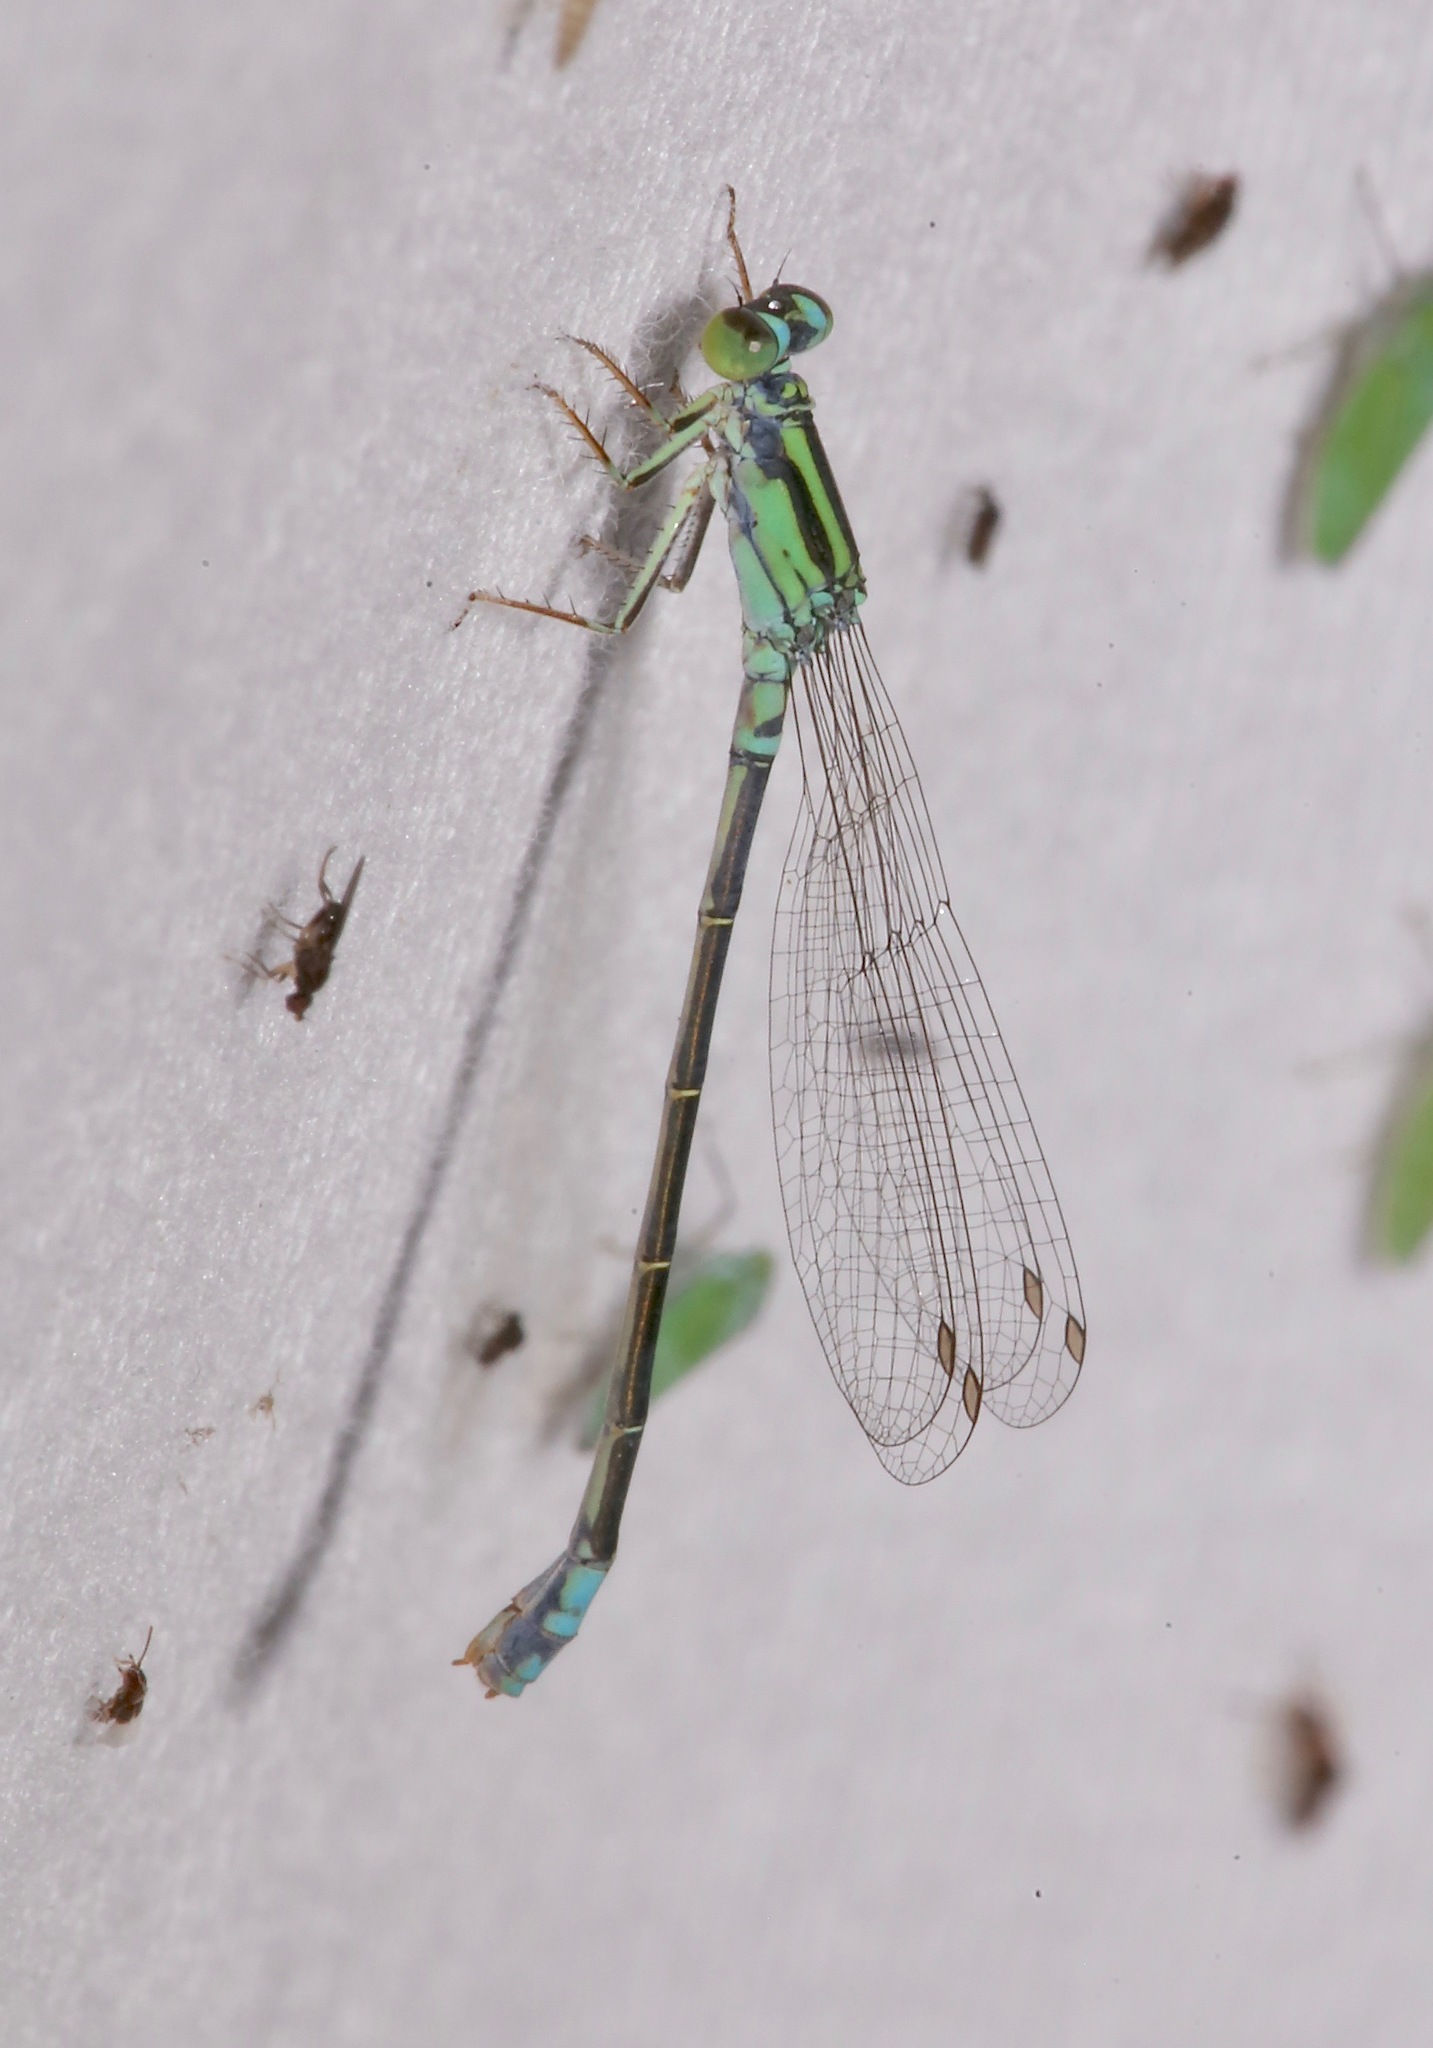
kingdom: Animalia
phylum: Arthropoda
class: Insecta
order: Odonata
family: Coenagrionidae
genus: Ischnura
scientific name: Ischnura kellicotti
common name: Lilypad forktail
